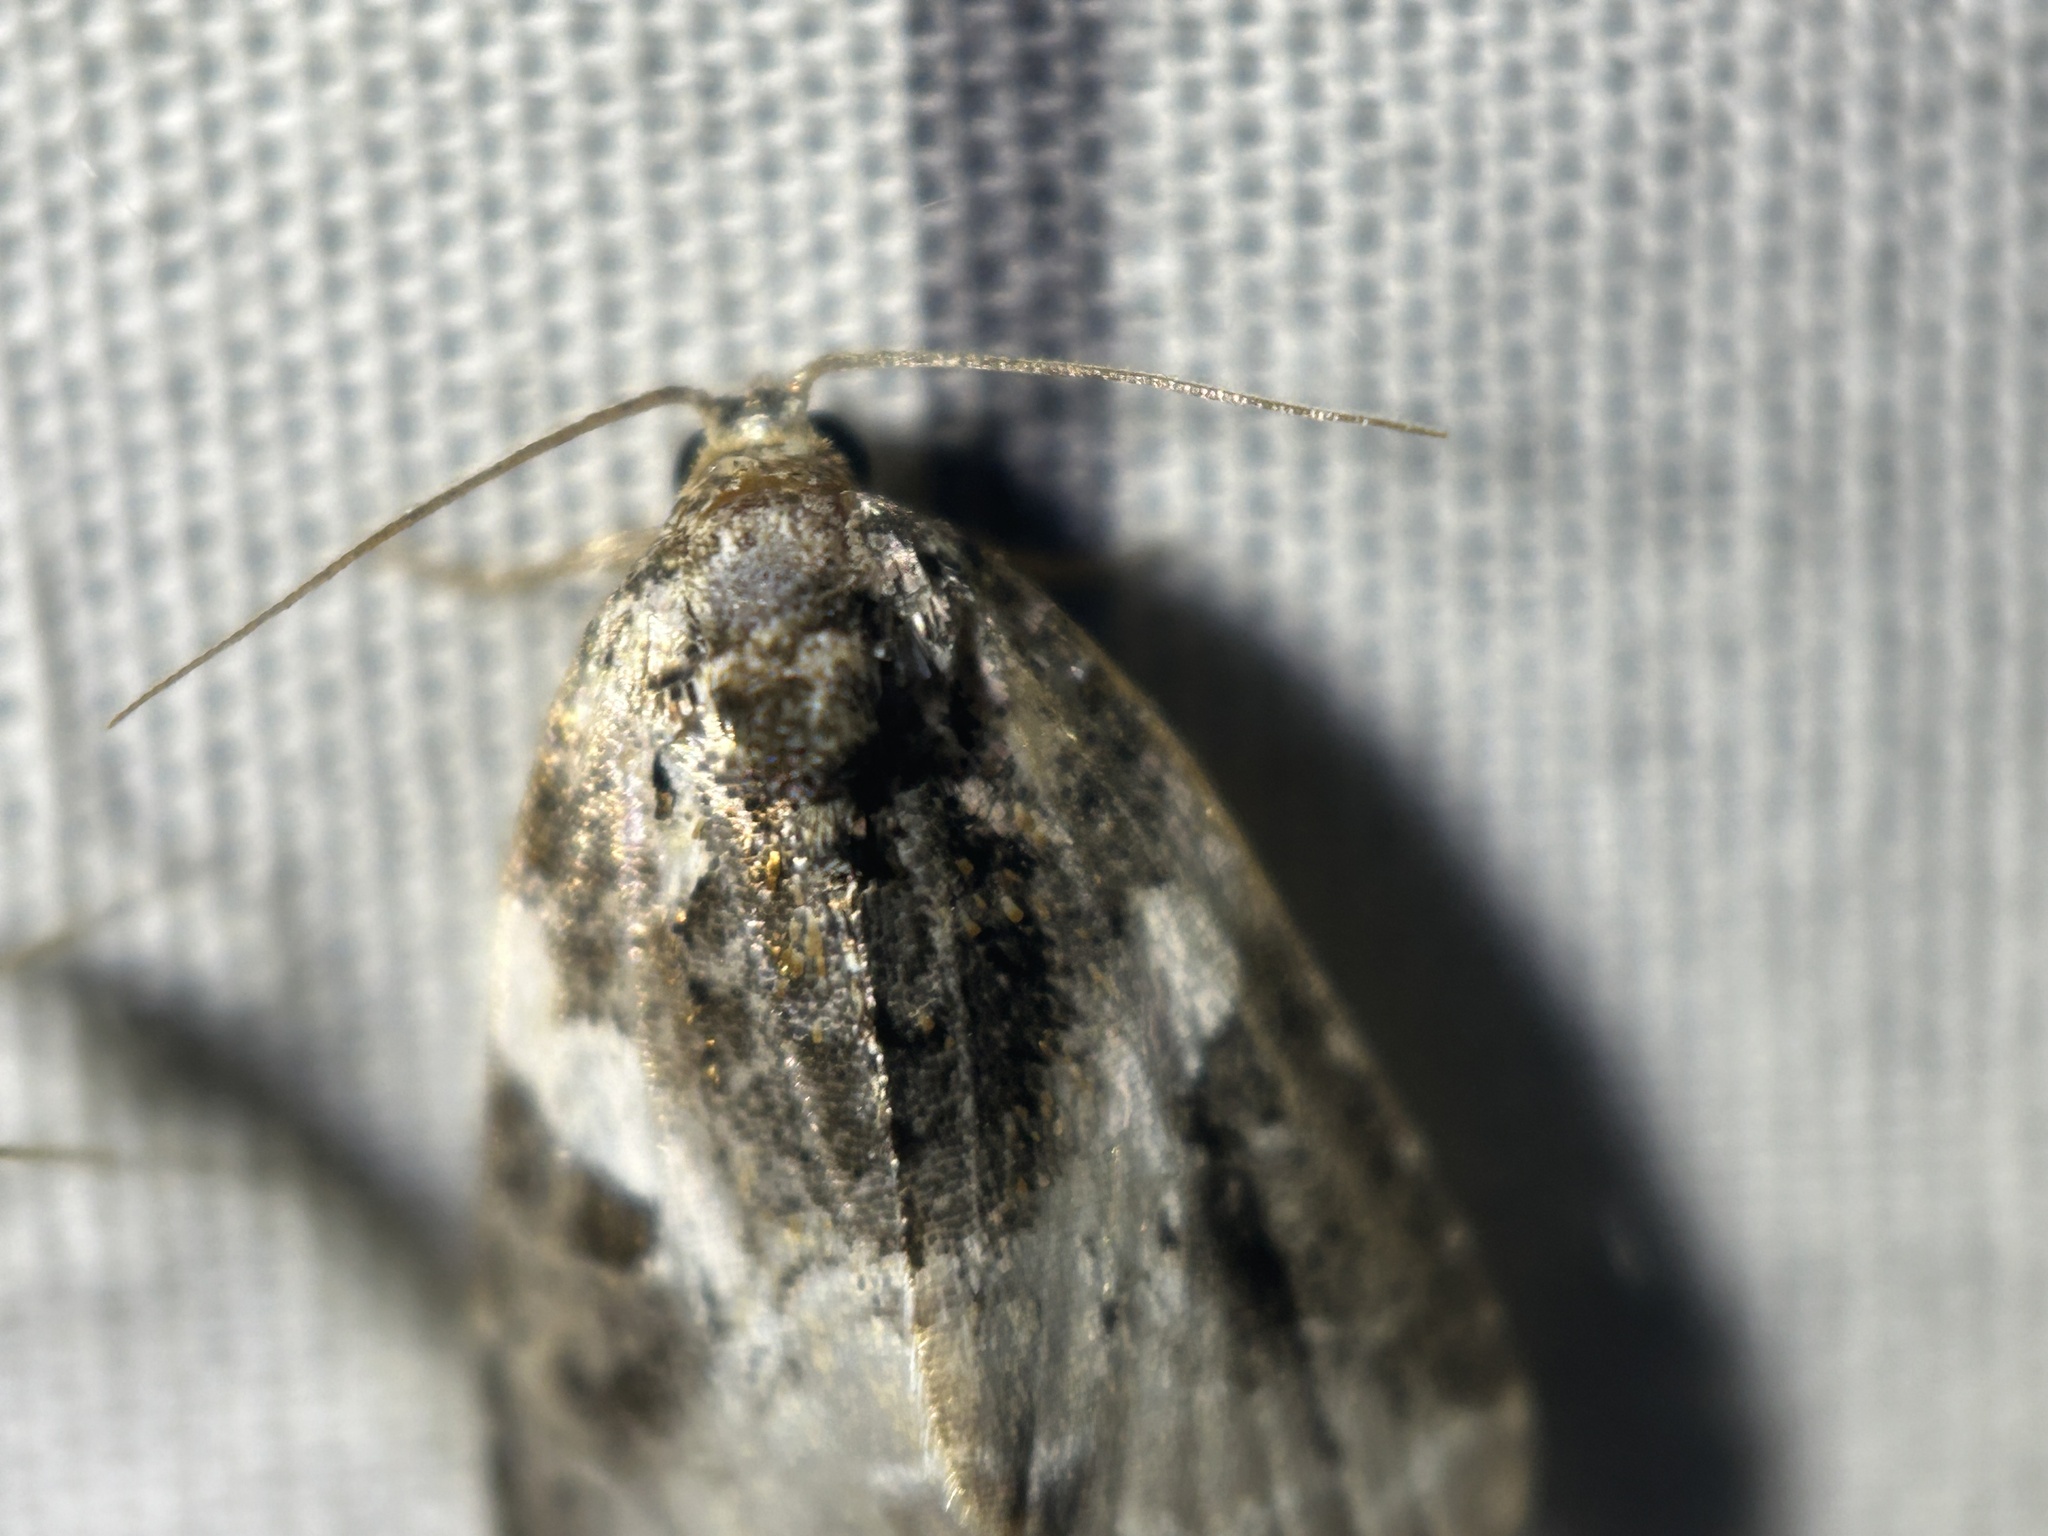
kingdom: Animalia
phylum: Arthropoda
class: Insecta
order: Lepidoptera
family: Noctuidae
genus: Pseudeustrotia
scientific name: Pseudeustrotia carneola
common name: Pink-barred lithacodia moth
